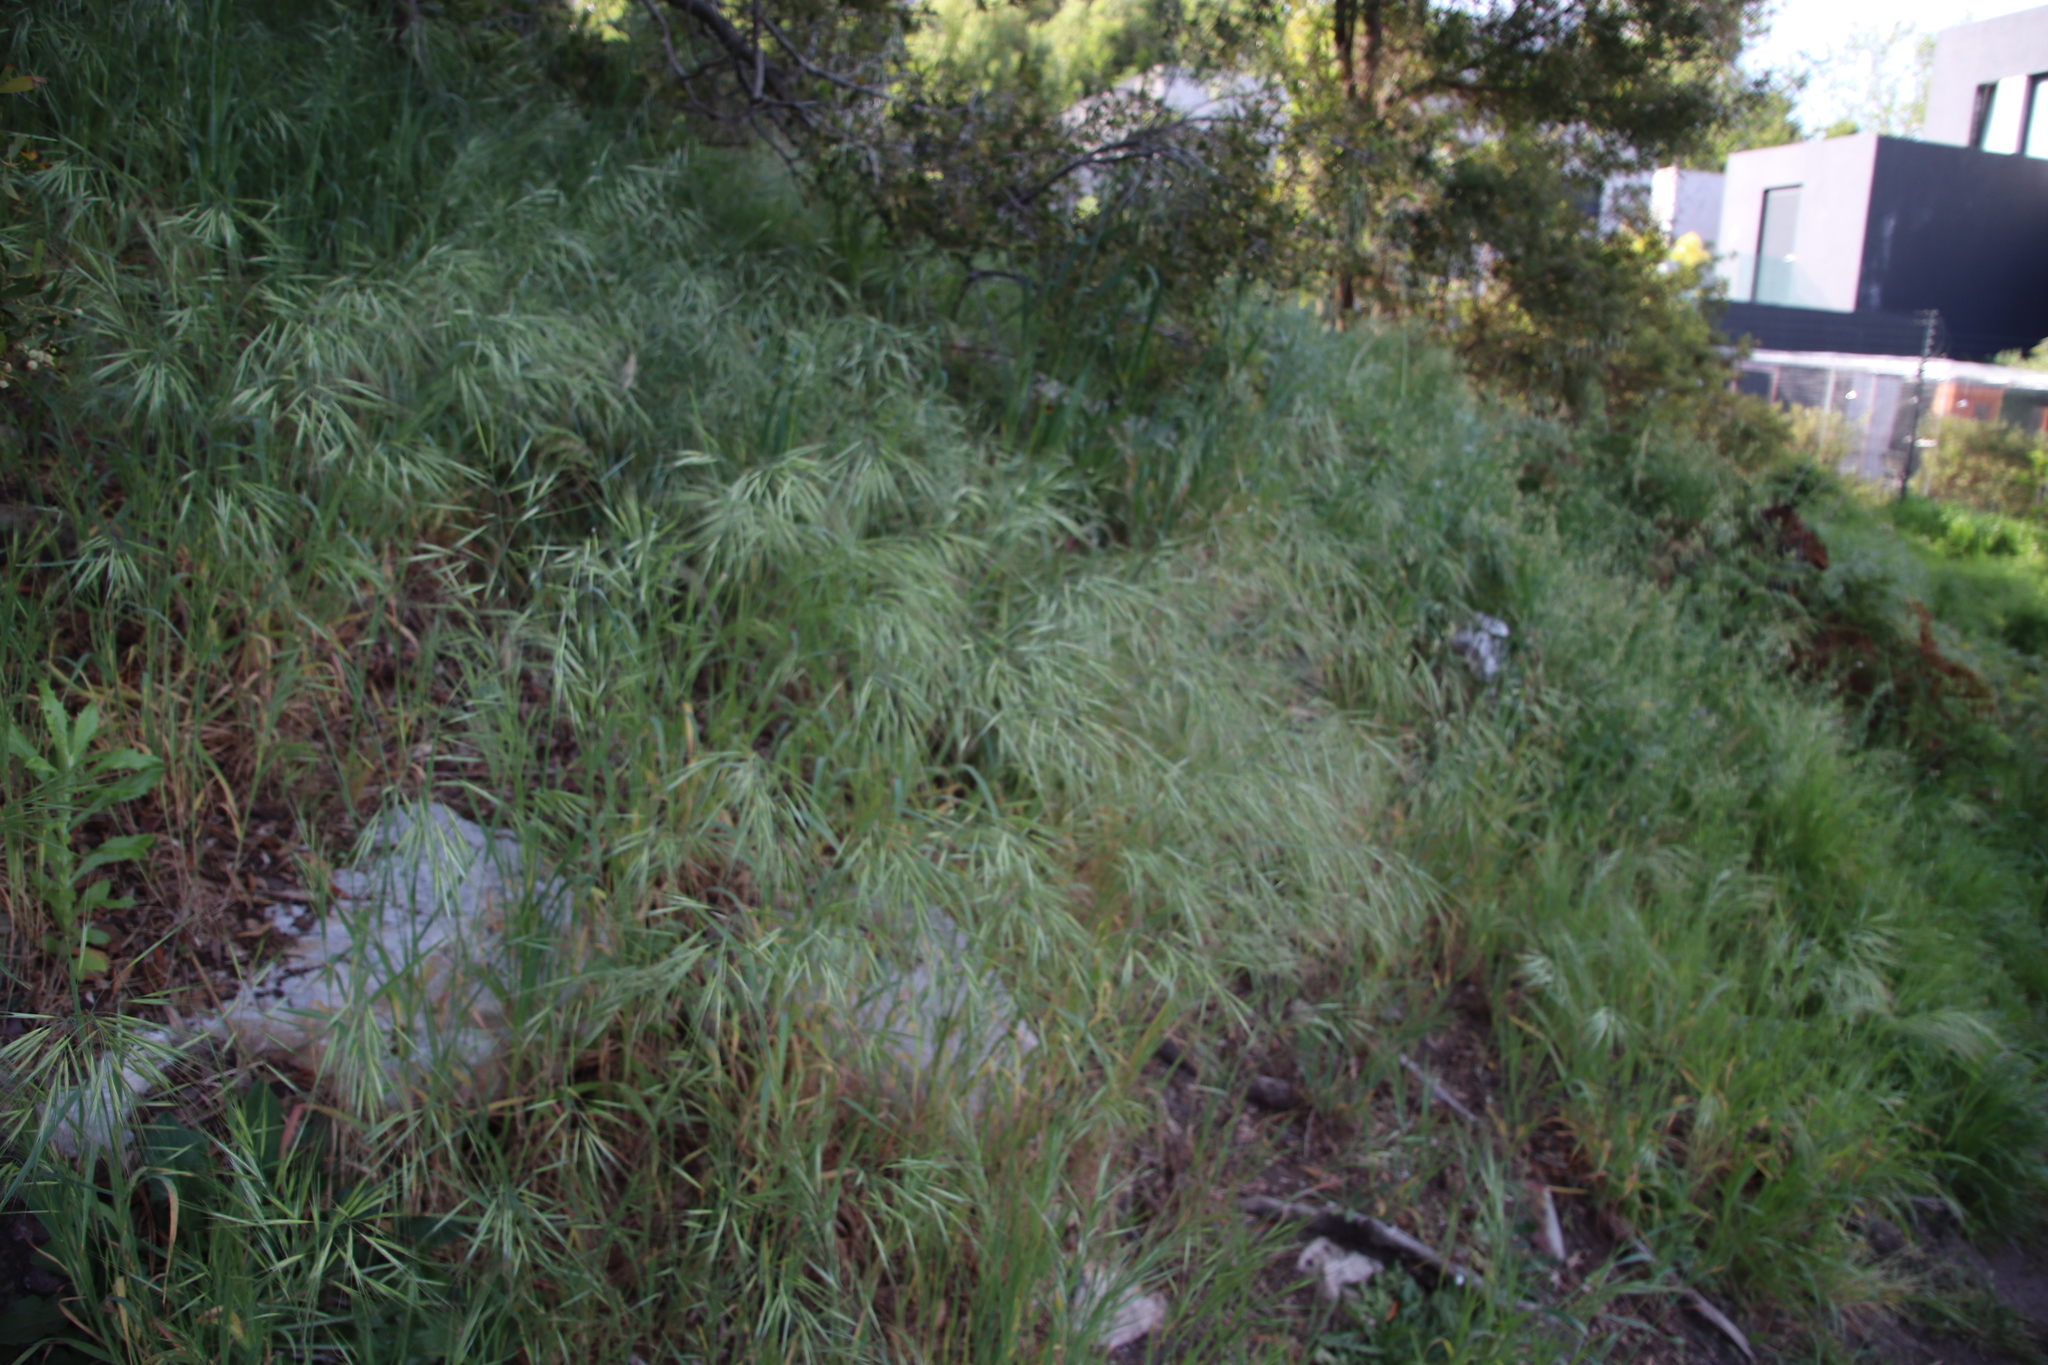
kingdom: Plantae
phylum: Tracheophyta
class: Liliopsida
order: Poales
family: Poaceae
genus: Bromus
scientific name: Bromus diandrus
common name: Ripgut brome
